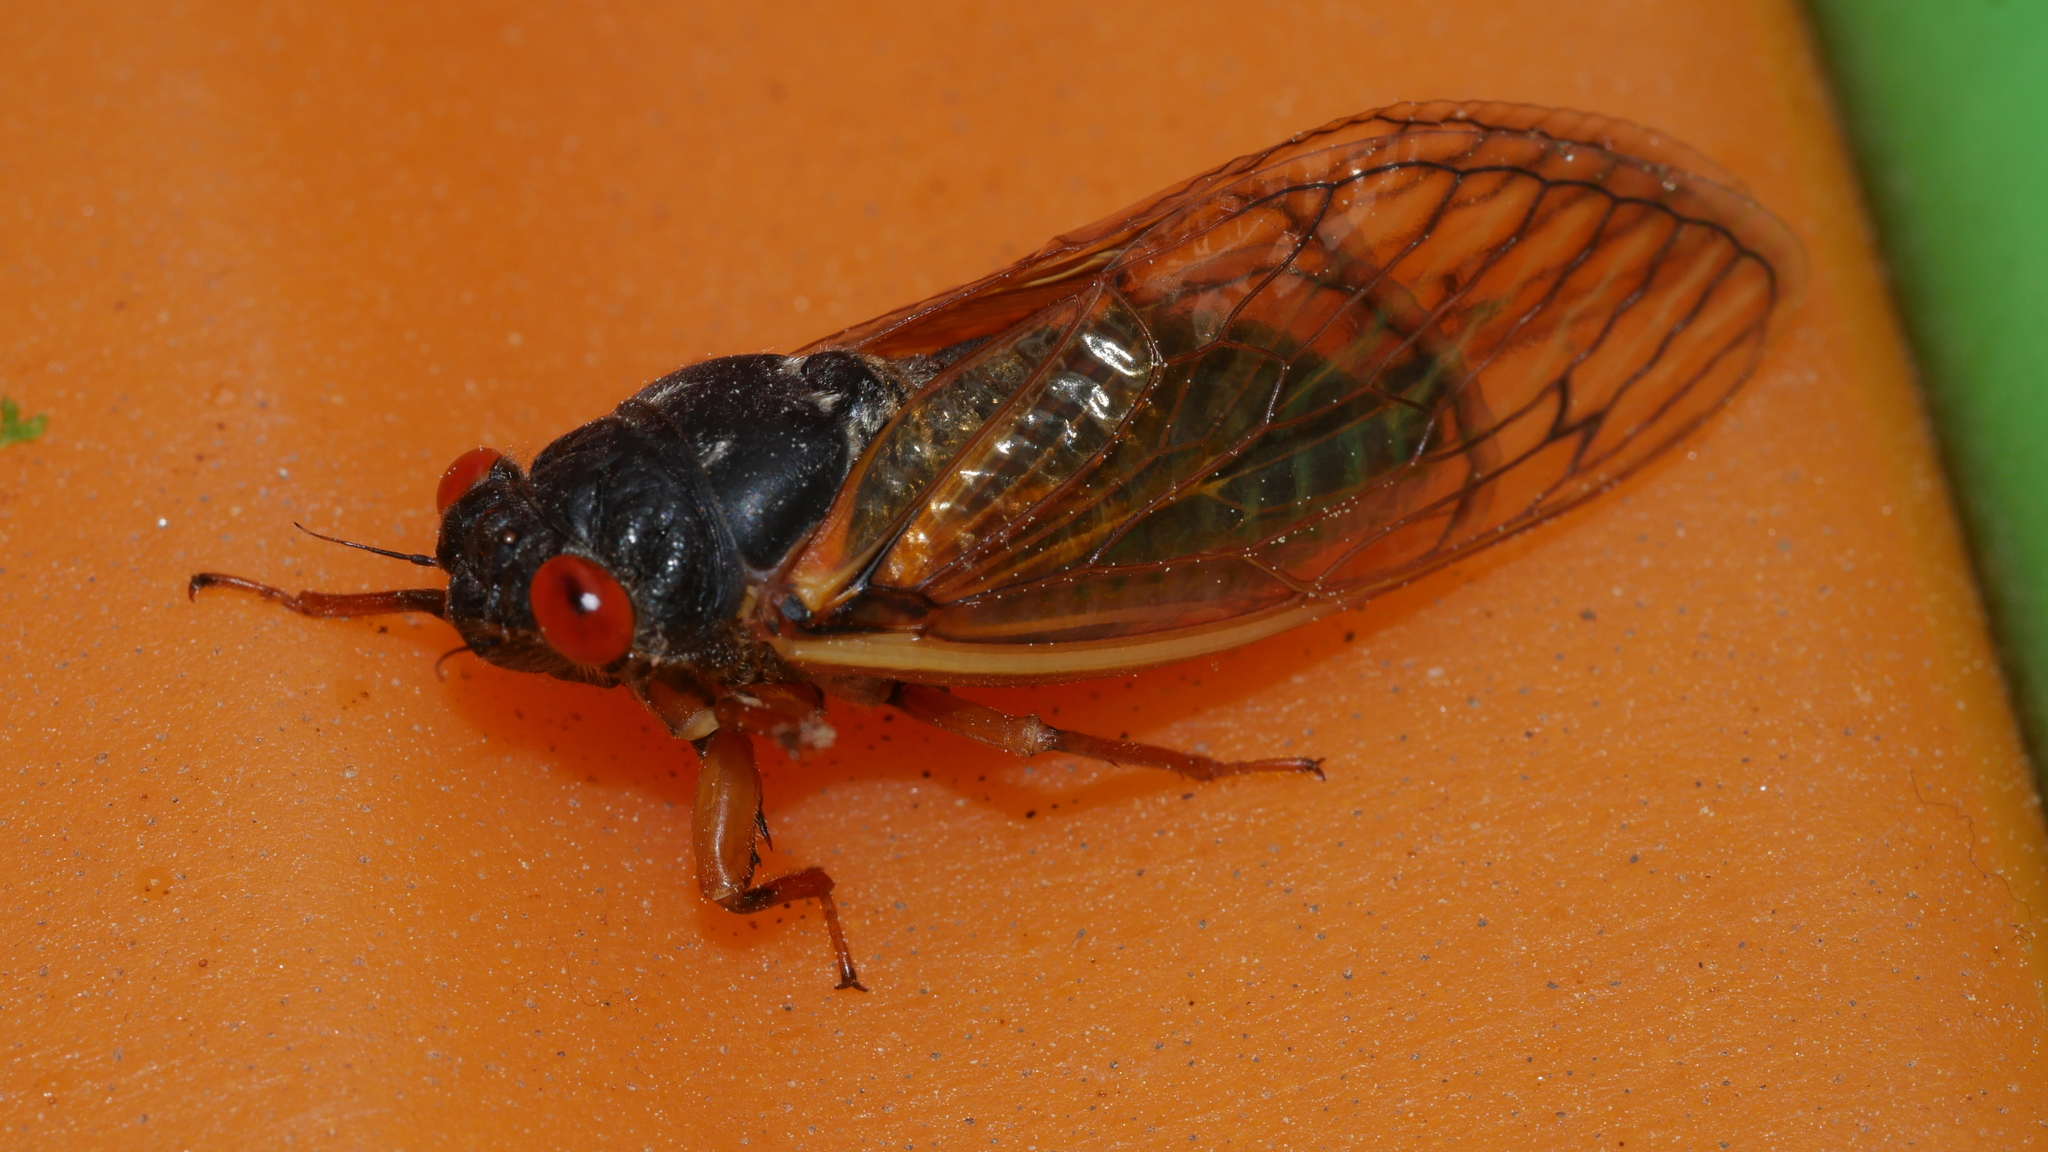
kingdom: Animalia
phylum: Arthropoda
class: Insecta
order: Hemiptera
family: Cicadidae
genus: Magicicada
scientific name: Magicicada septendecula
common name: Decula periodical cicada
